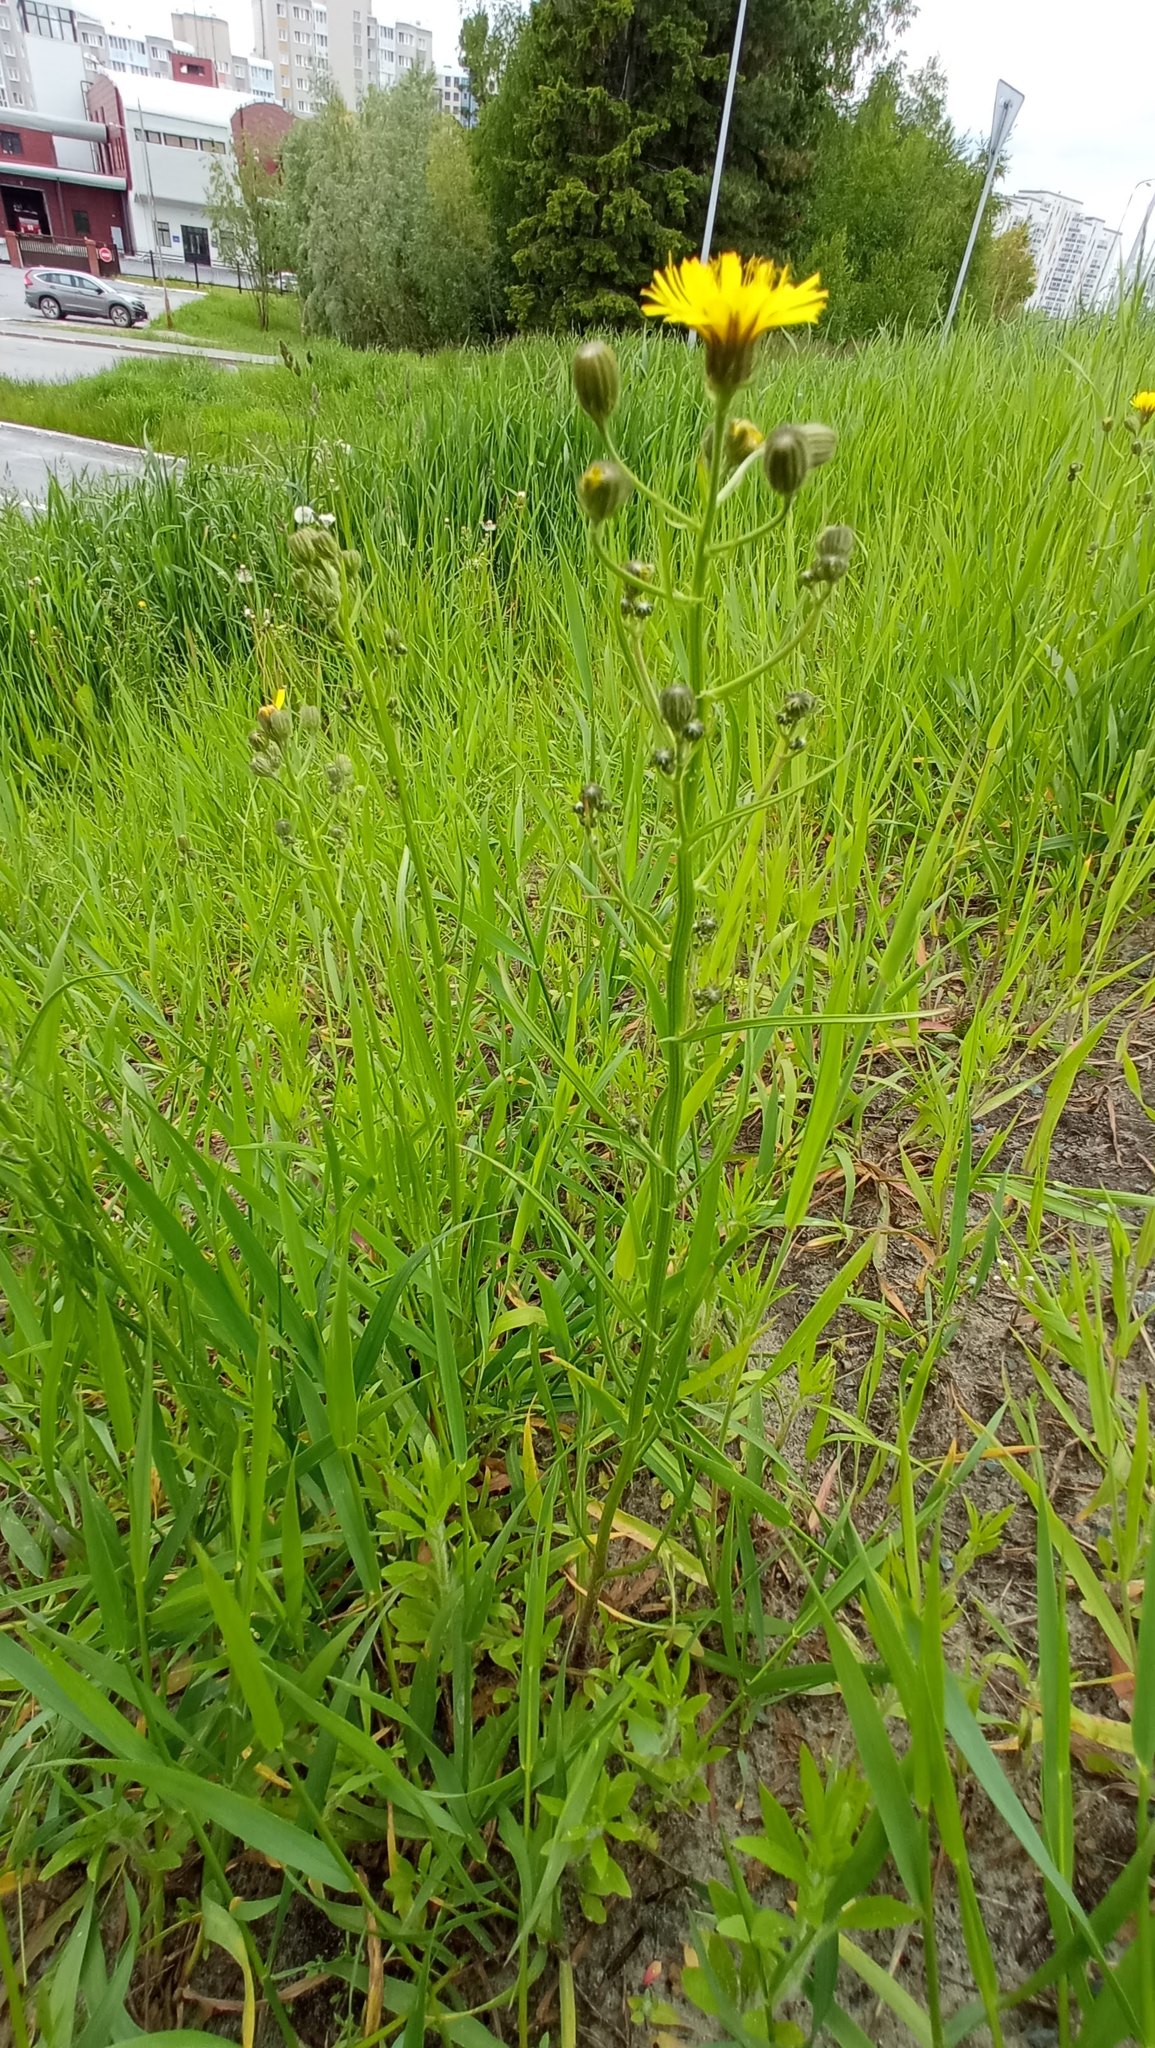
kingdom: Plantae
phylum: Tracheophyta
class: Magnoliopsida
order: Asterales
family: Asteraceae
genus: Crepis
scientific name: Crepis tectorum
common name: Narrow-leaved hawk's-beard
